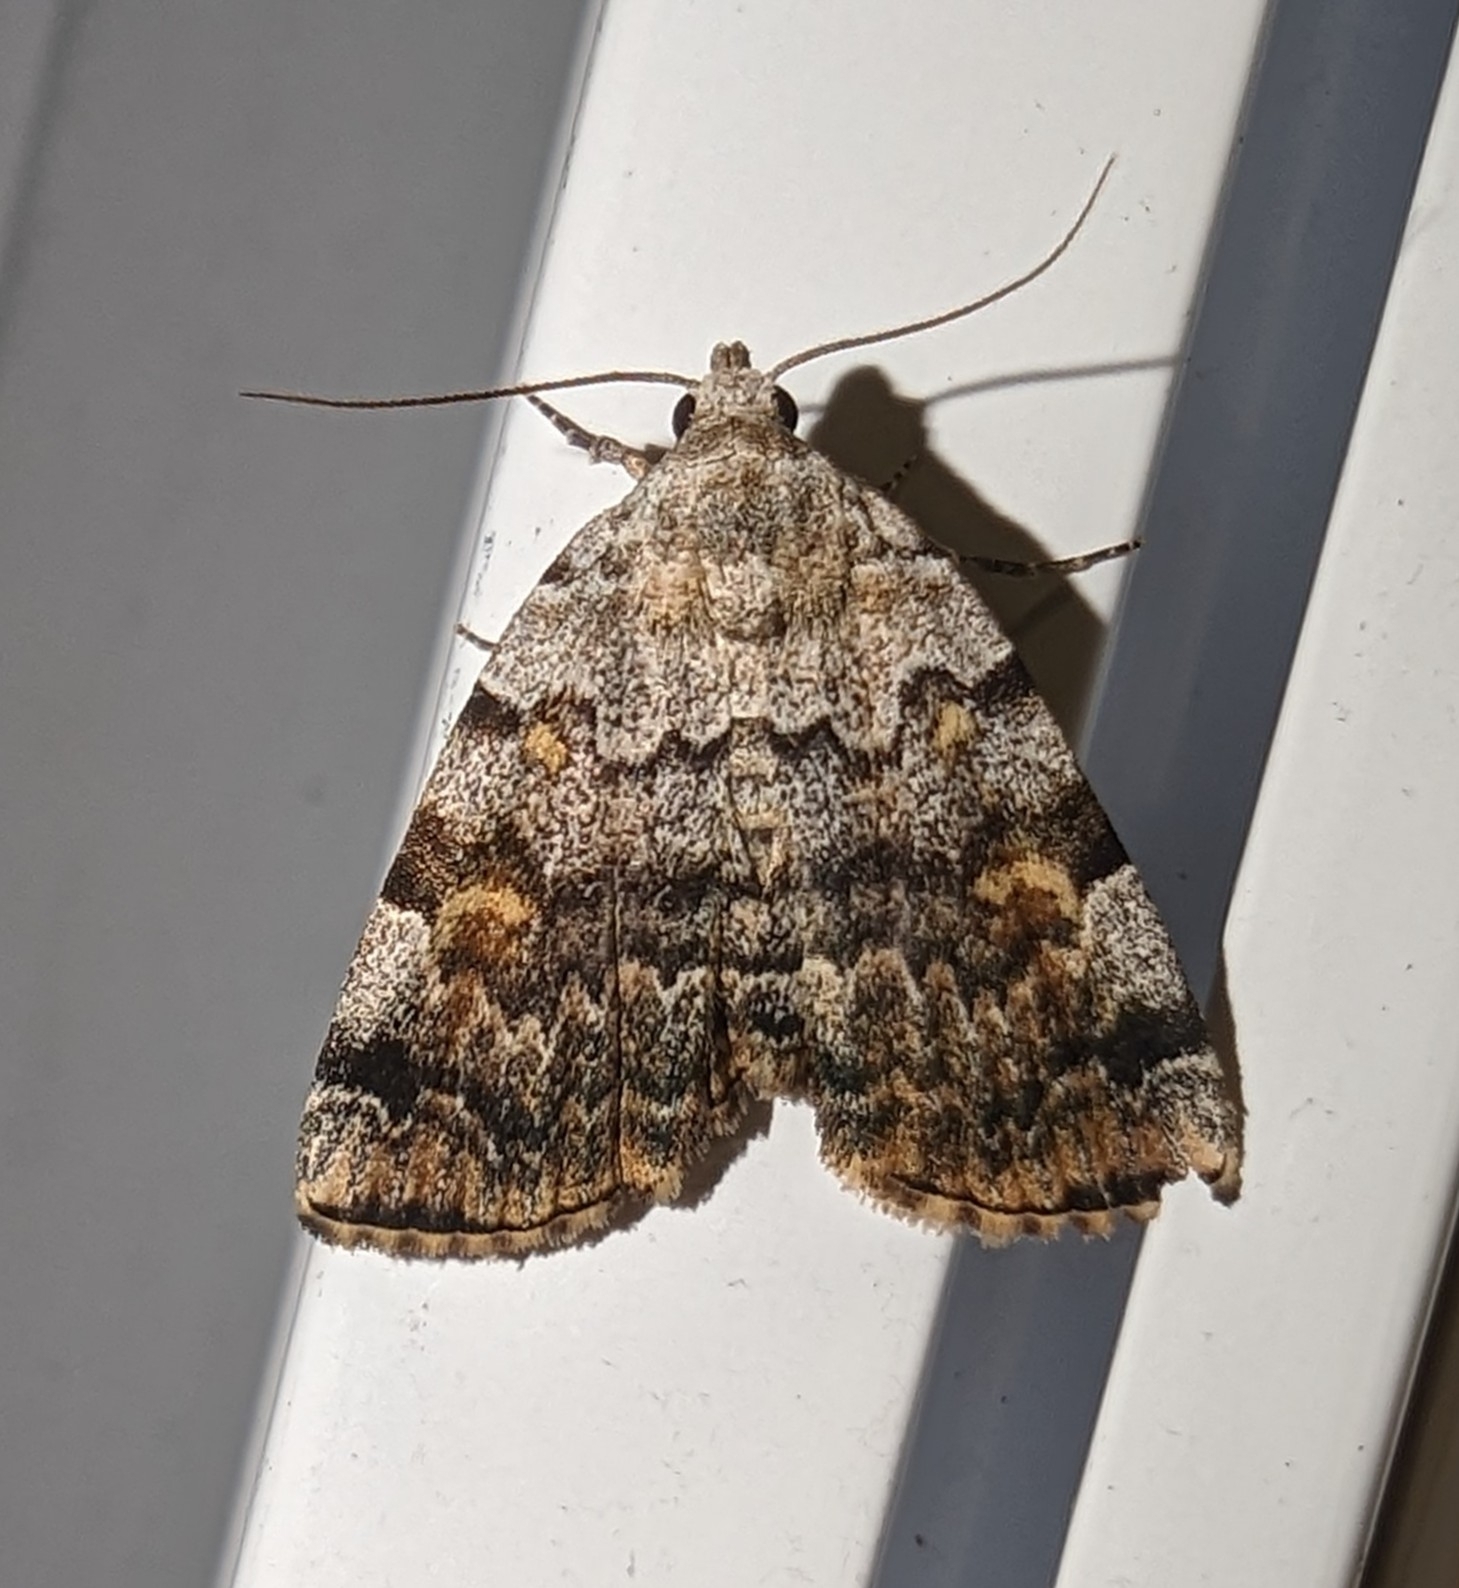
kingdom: Animalia
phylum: Arthropoda
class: Insecta
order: Lepidoptera
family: Erebidae
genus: Idia
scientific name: Idia americalis
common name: American idia moth
